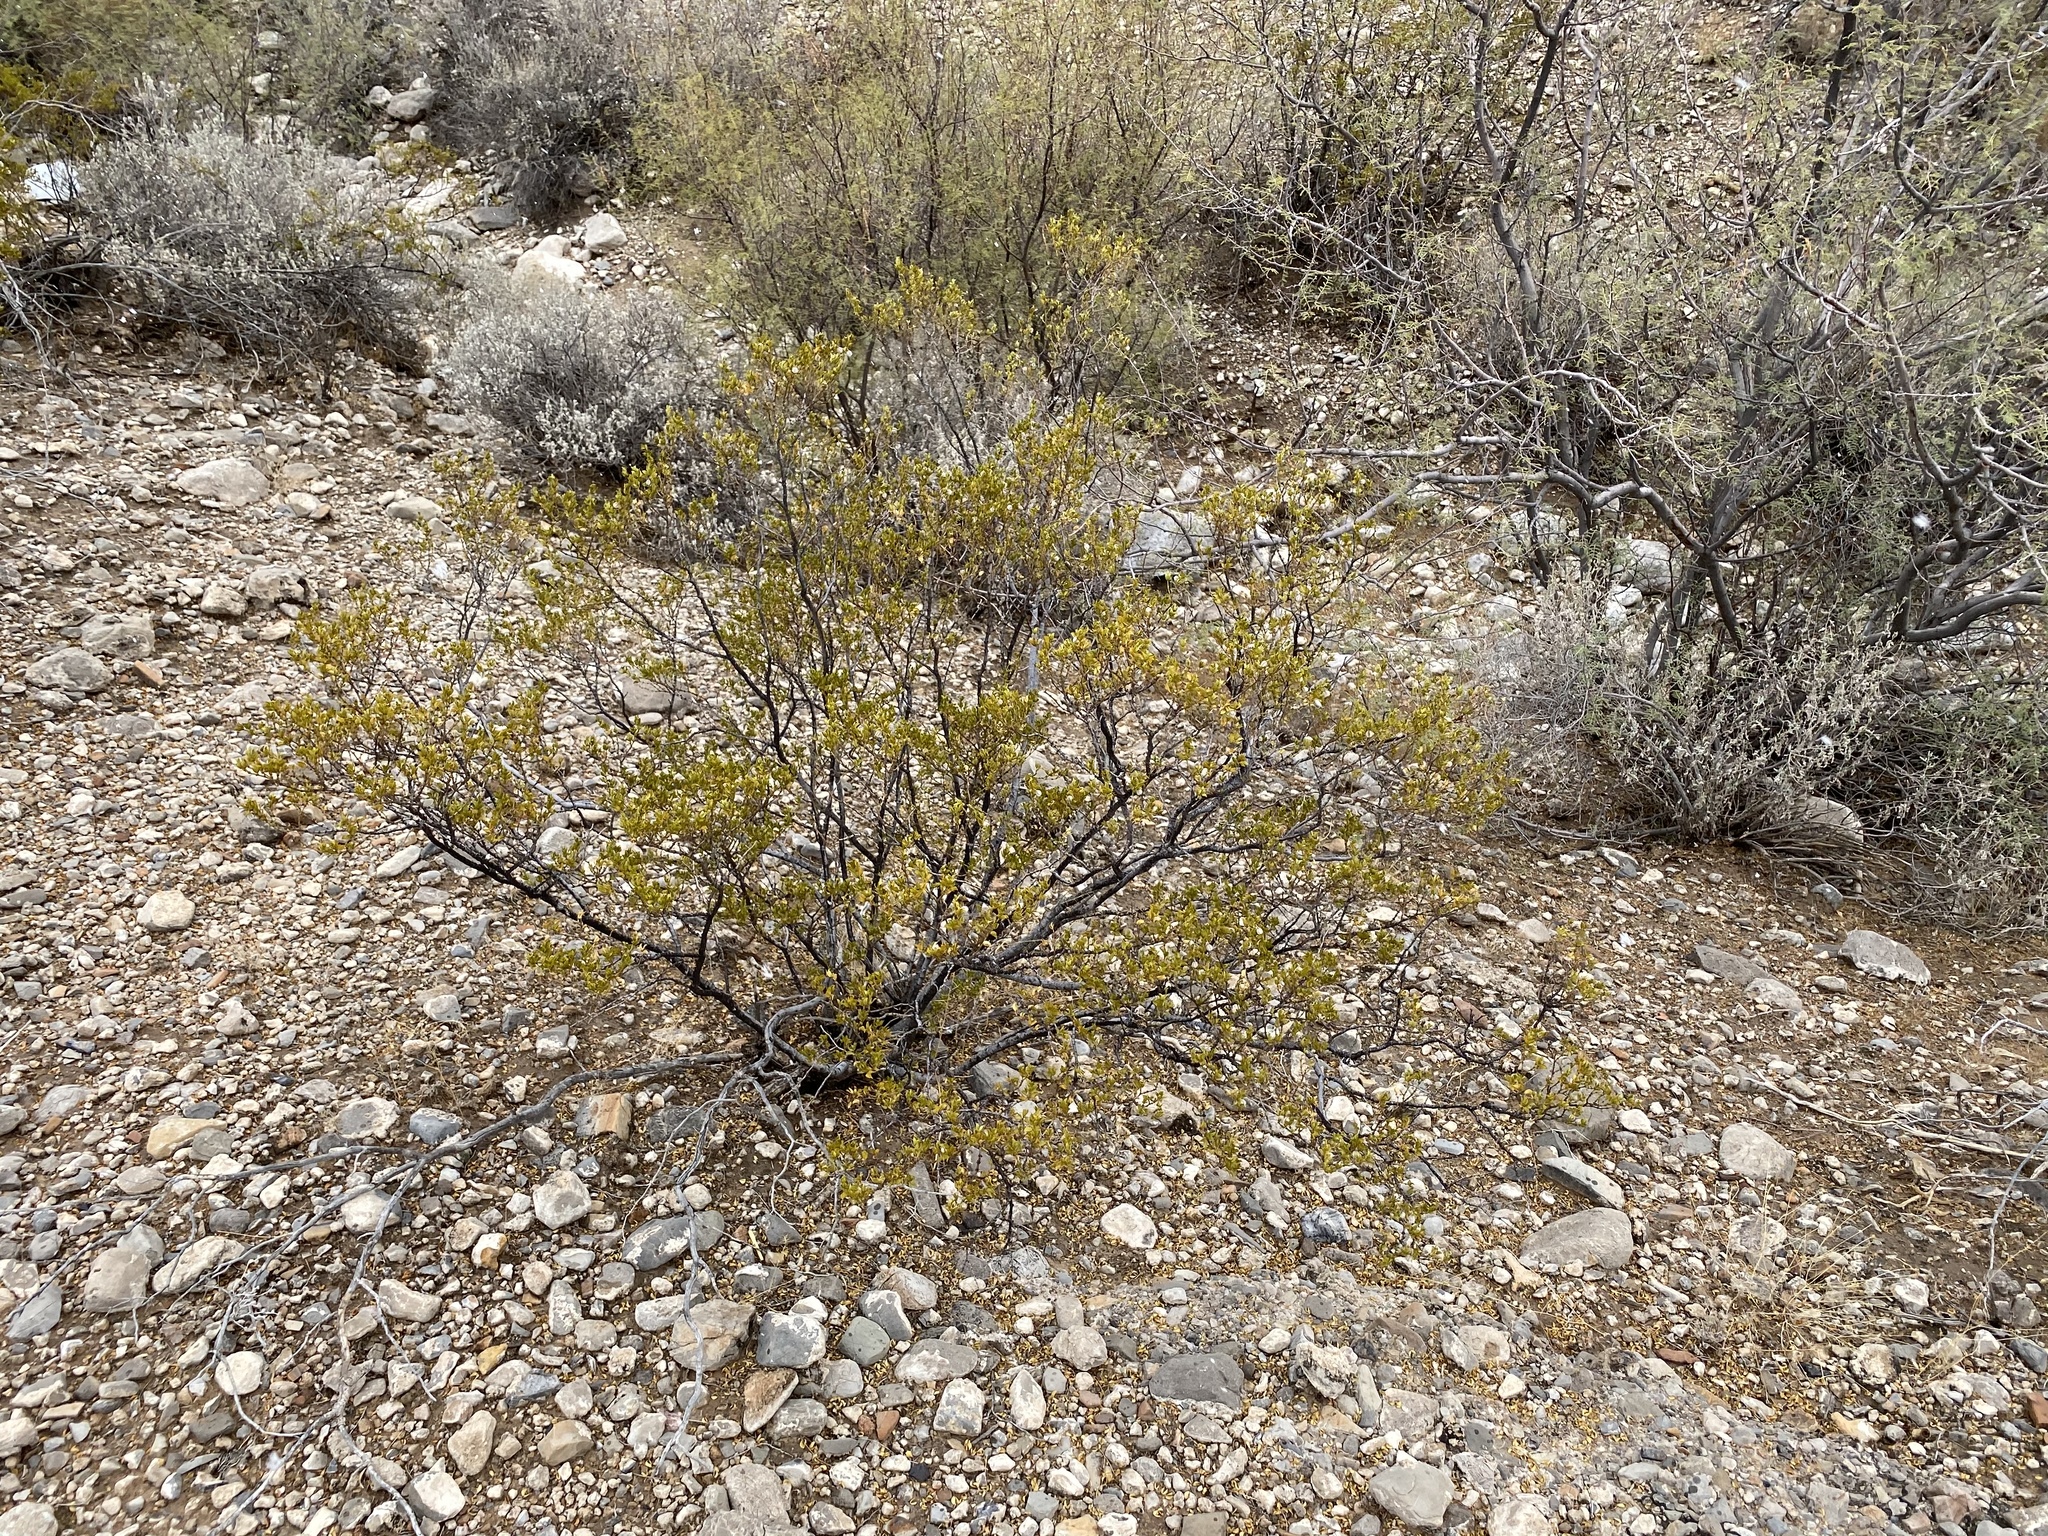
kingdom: Plantae
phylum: Tracheophyta
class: Magnoliopsida
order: Zygophyllales
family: Zygophyllaceae
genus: Larrea
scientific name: Larrea tridentata
